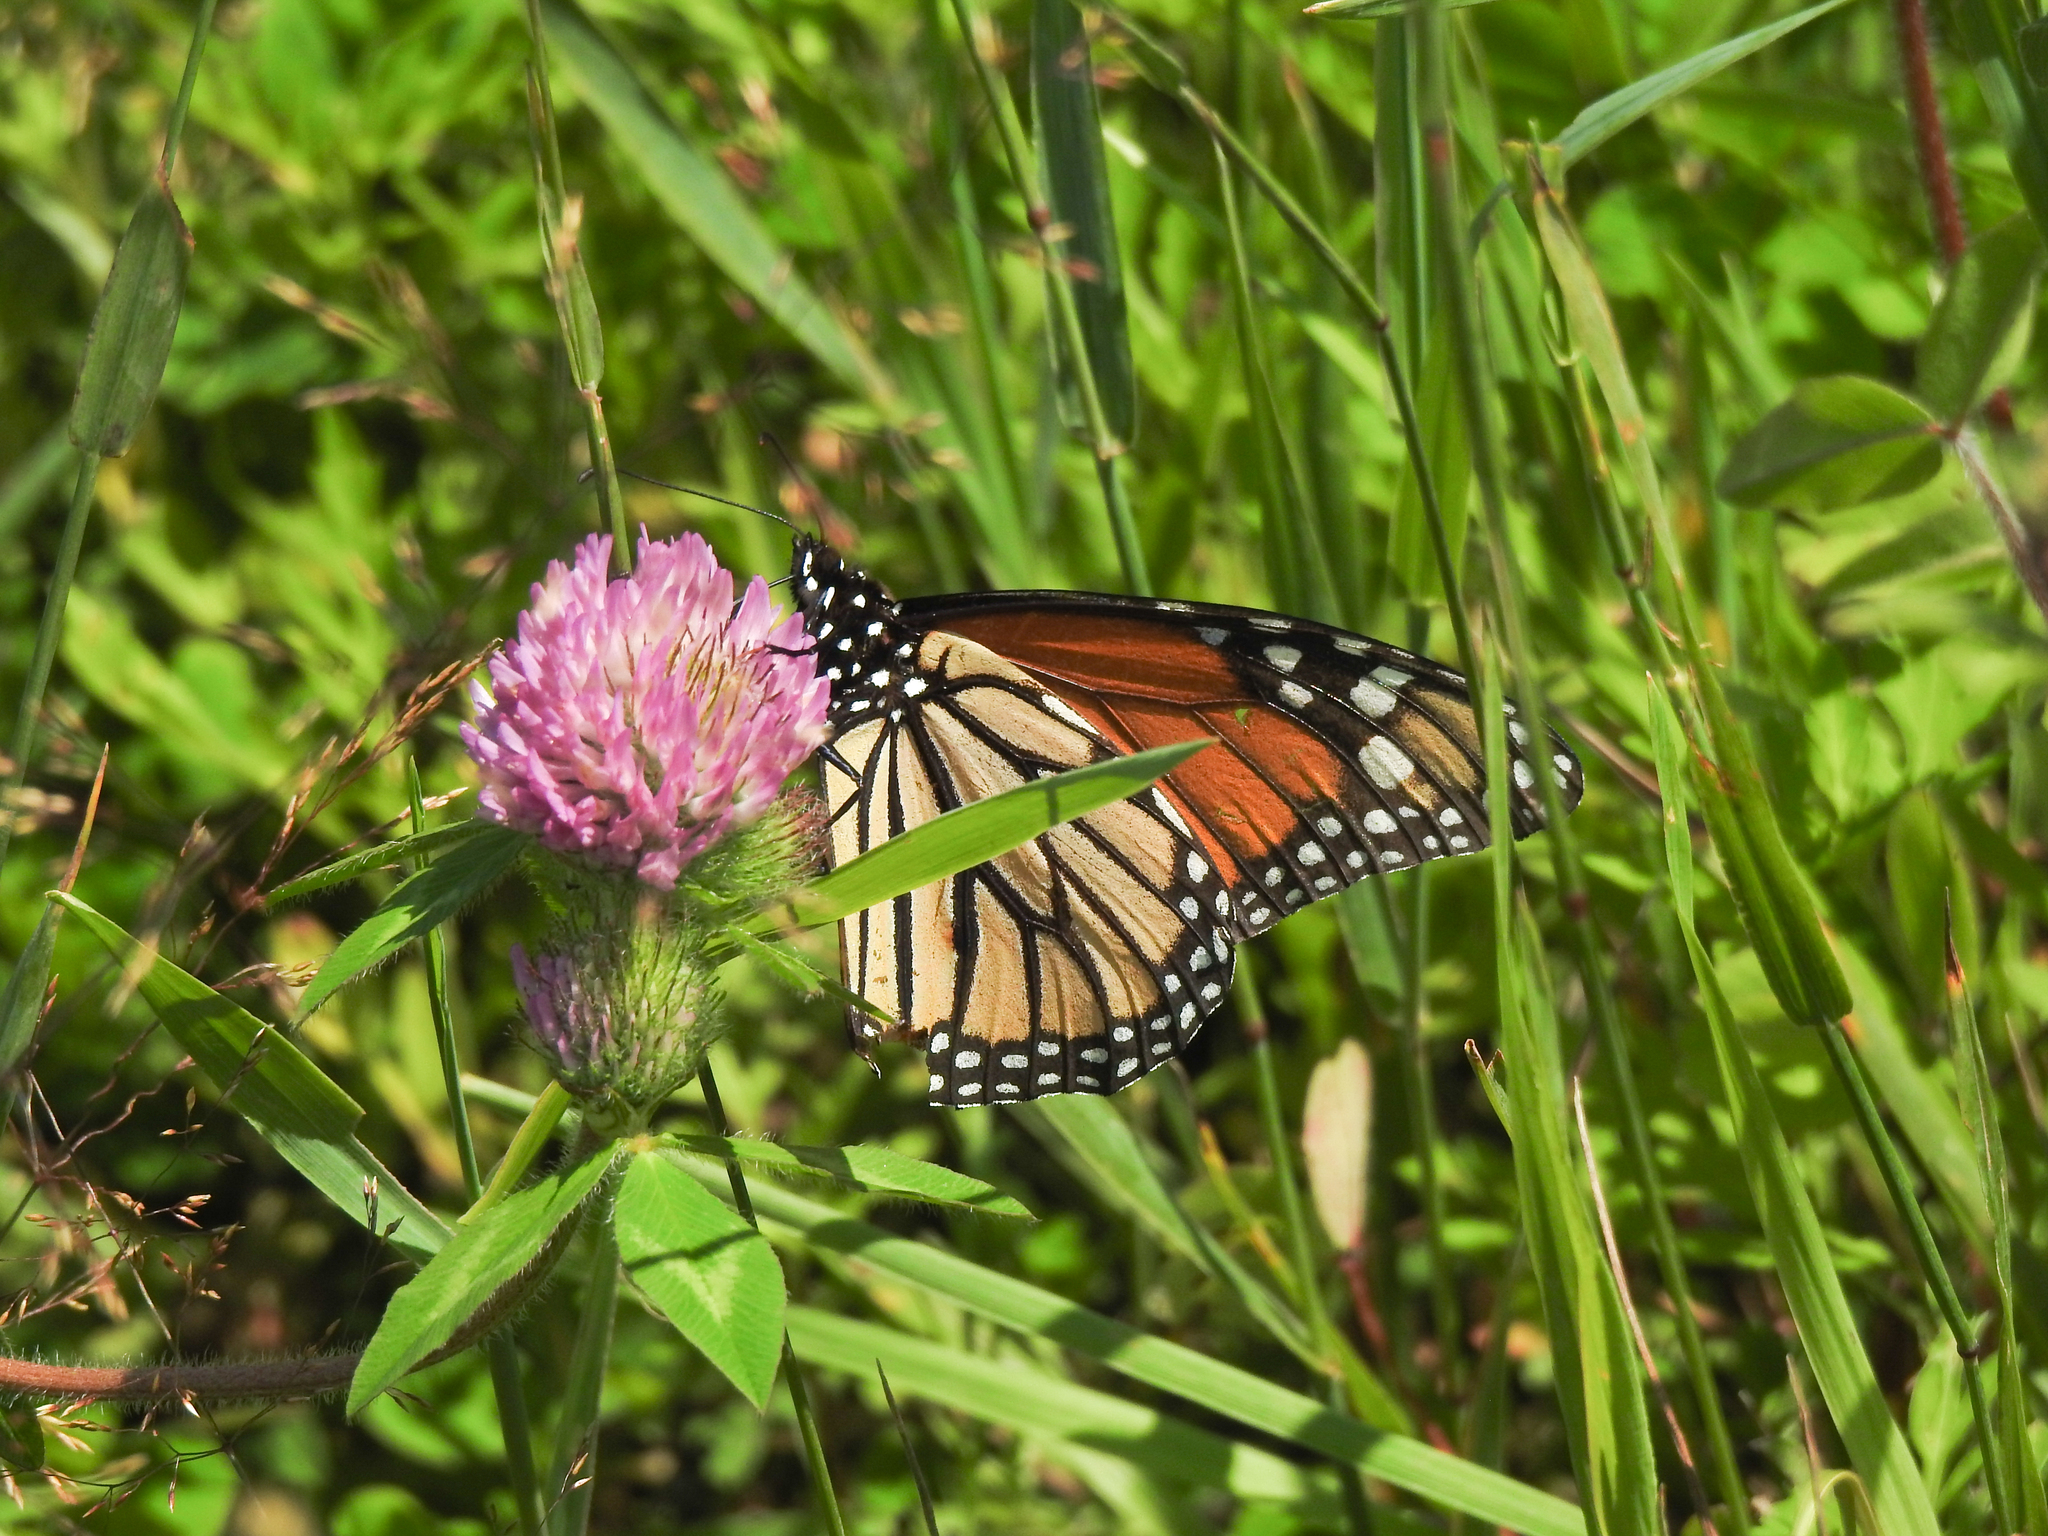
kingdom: Animalia
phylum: Arthropoda
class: Insecta
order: Lepidoptera
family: Nymphalidae
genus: Danaus
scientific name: Danaus plexippus
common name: Monarch
